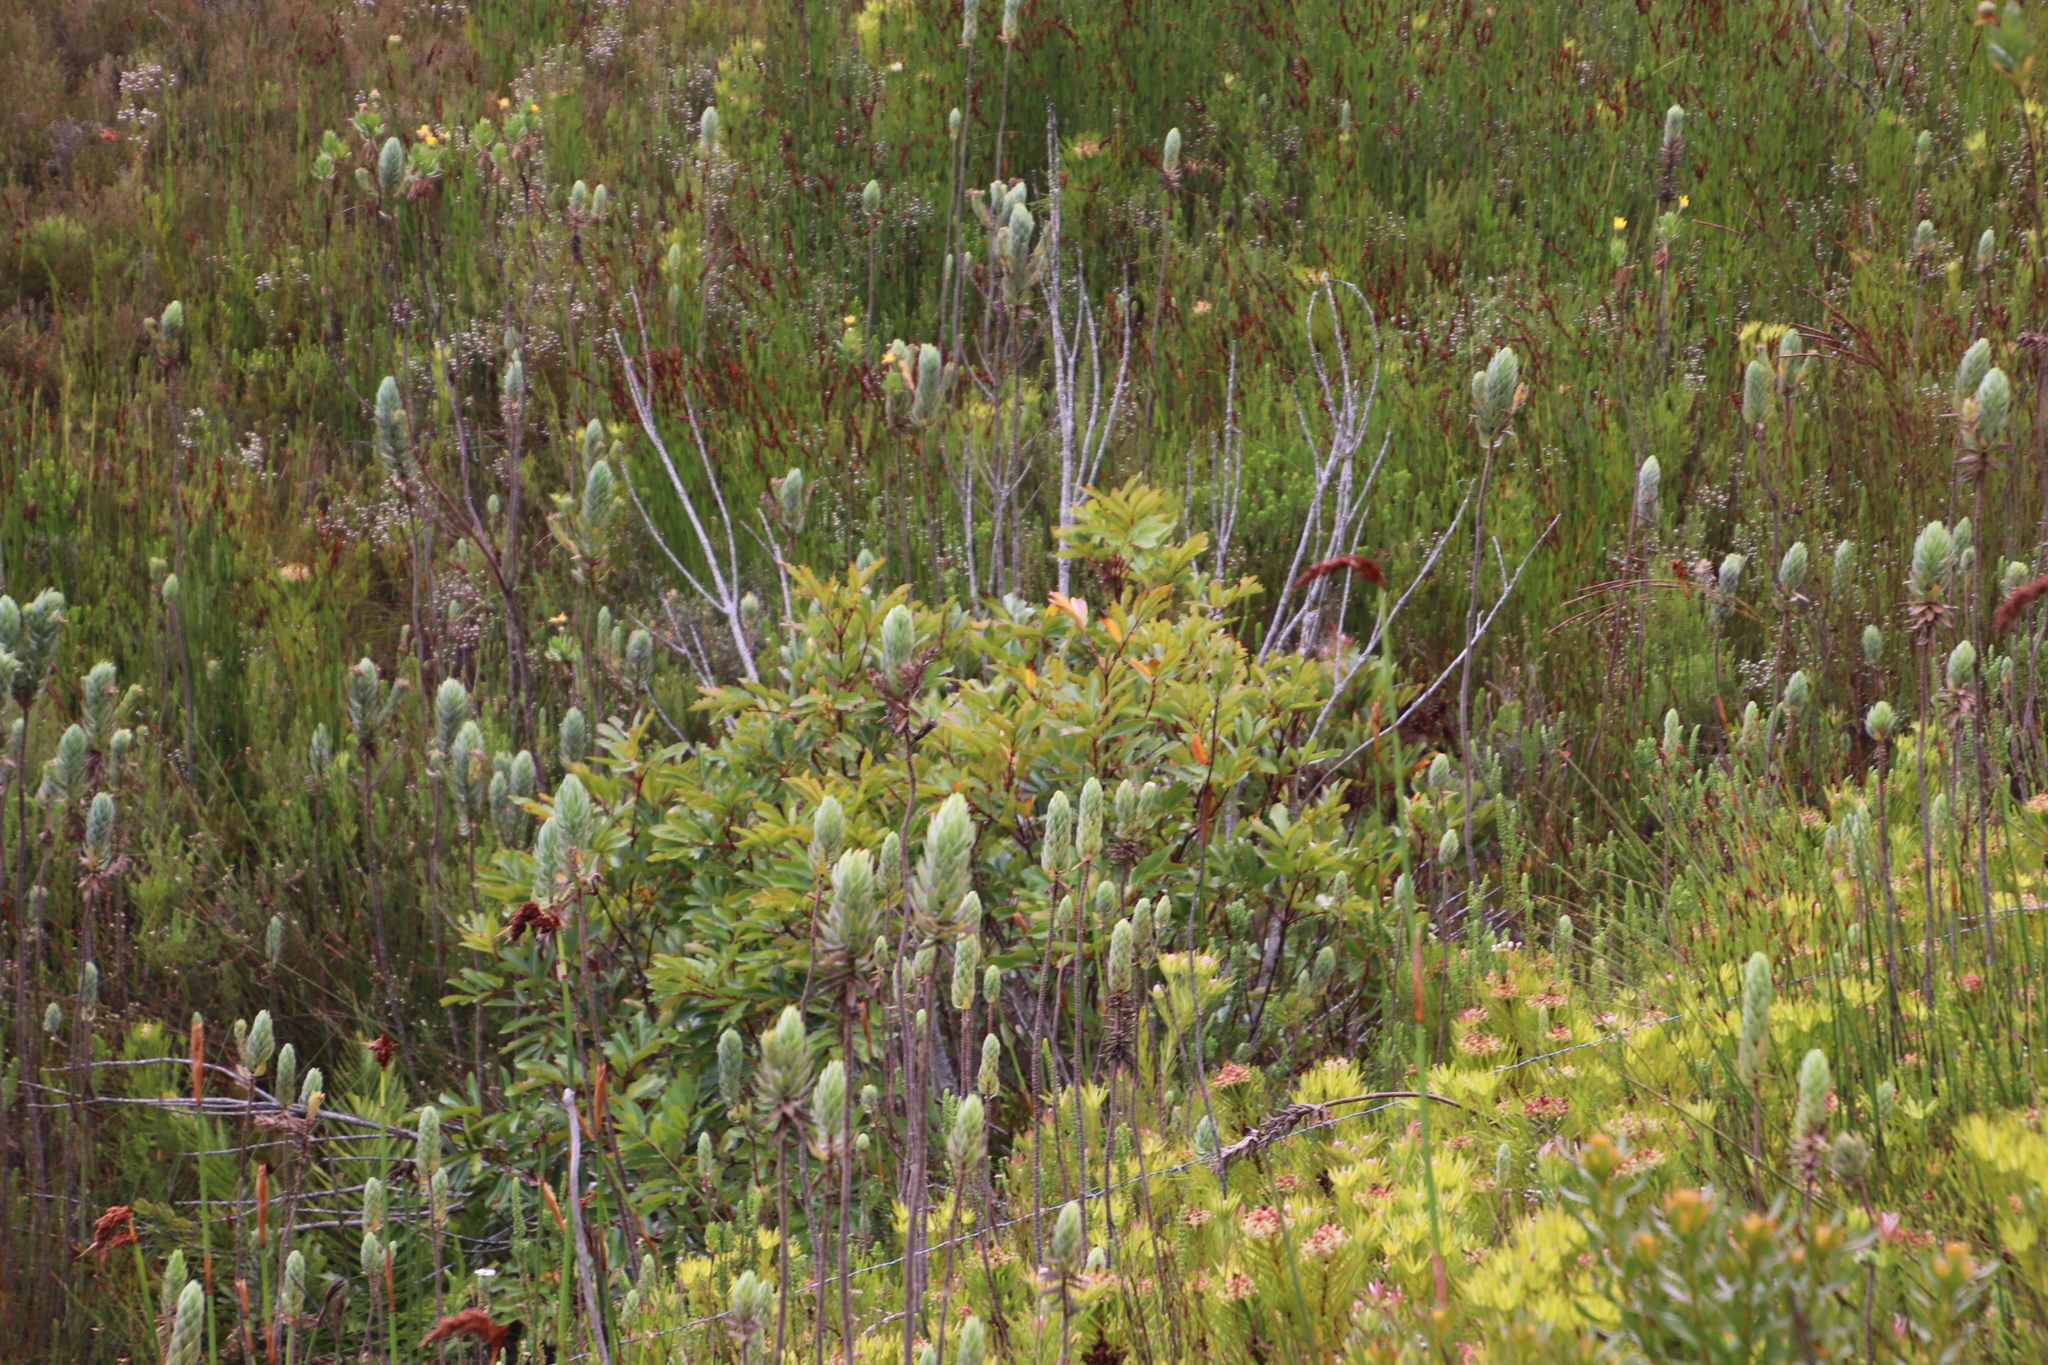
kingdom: Plantae
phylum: Tracheophyta
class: Magnoliopsida
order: Oxalidales
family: Cunoniaceae
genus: Cunonia
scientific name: Cunonia capensis
